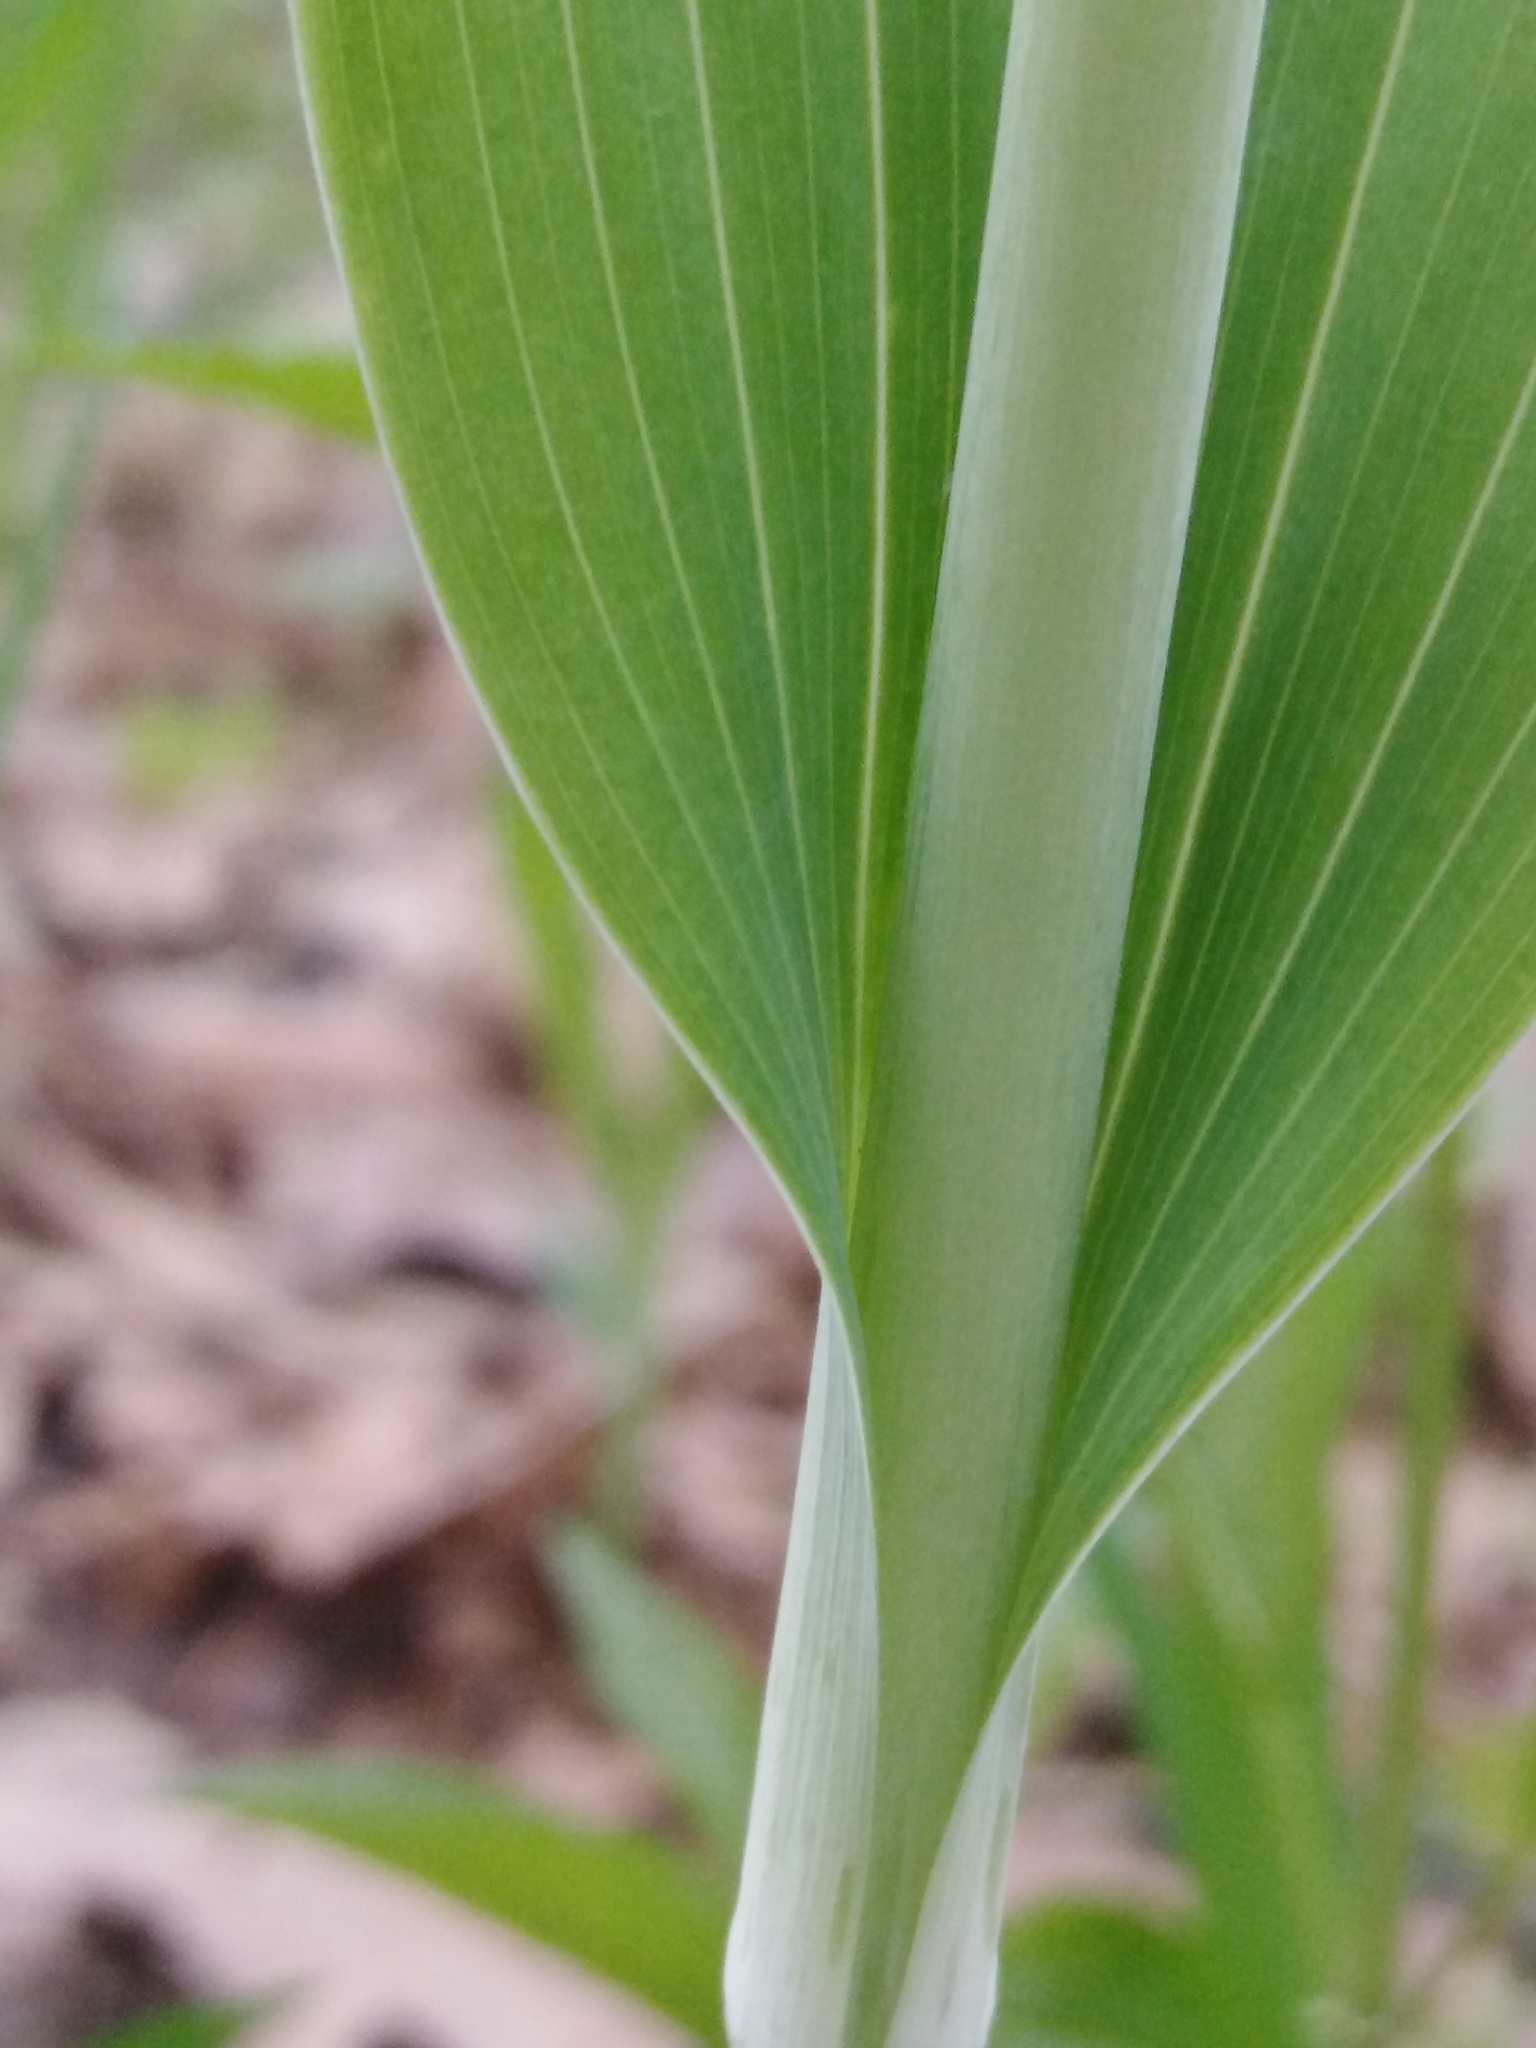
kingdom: Plantae
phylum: Tracheophyta
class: Liliopsida
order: Asparagales
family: Asparagaceae
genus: Polygonatum
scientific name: Polygonatum multiflorum
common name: Solomon's-seal
